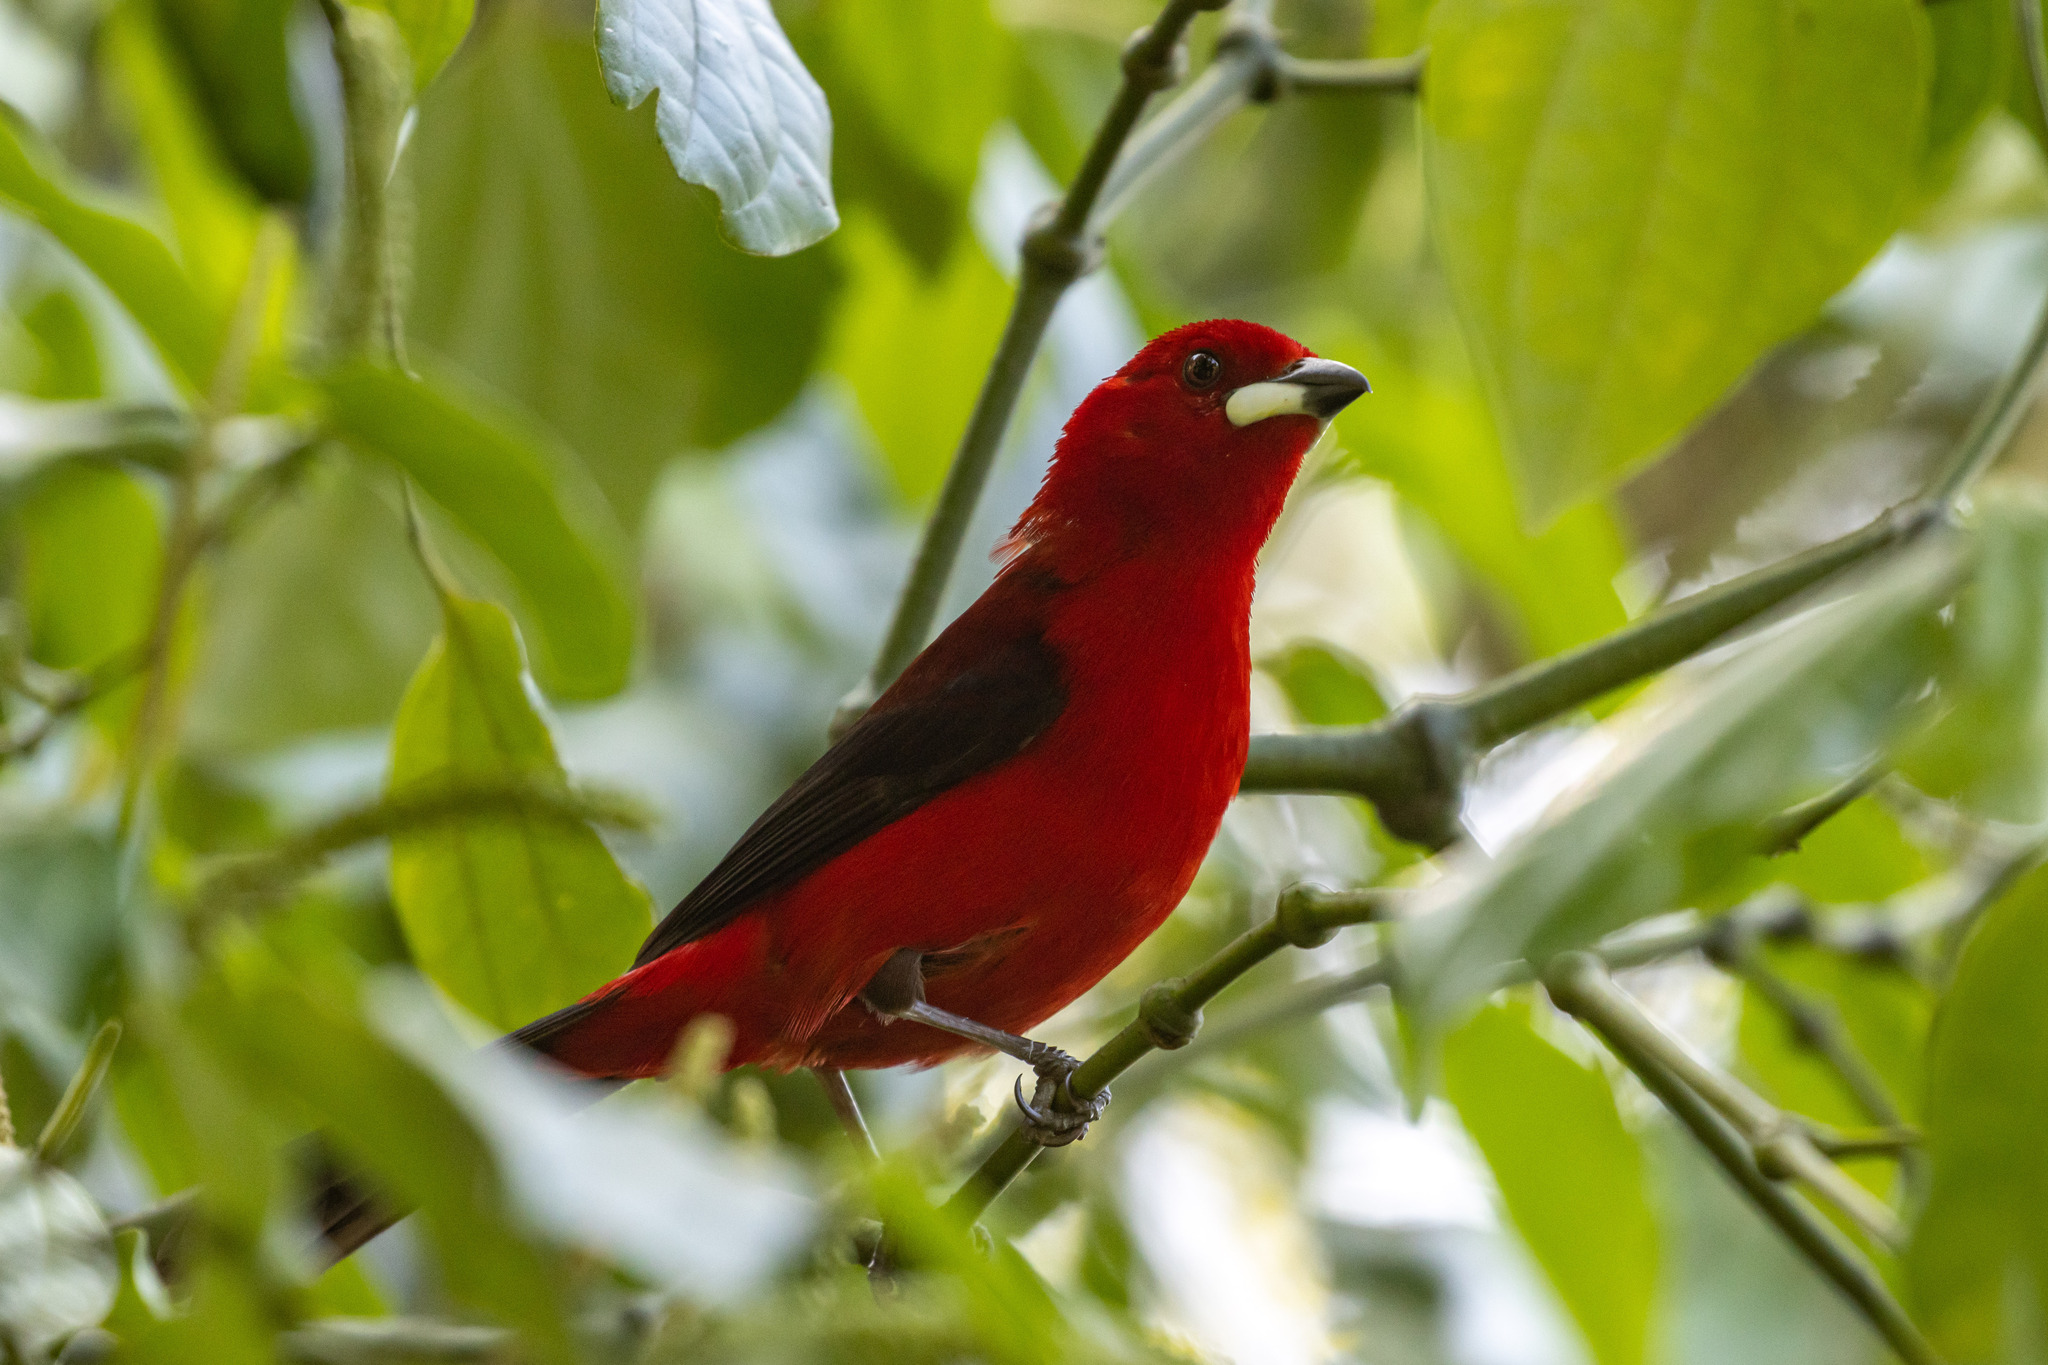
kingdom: Animalia
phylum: Chordata
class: Aves
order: Passeriformes
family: Thraupidae
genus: Ramphocelus
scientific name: Ramphocelus bresilia
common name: Brazilian tanager
